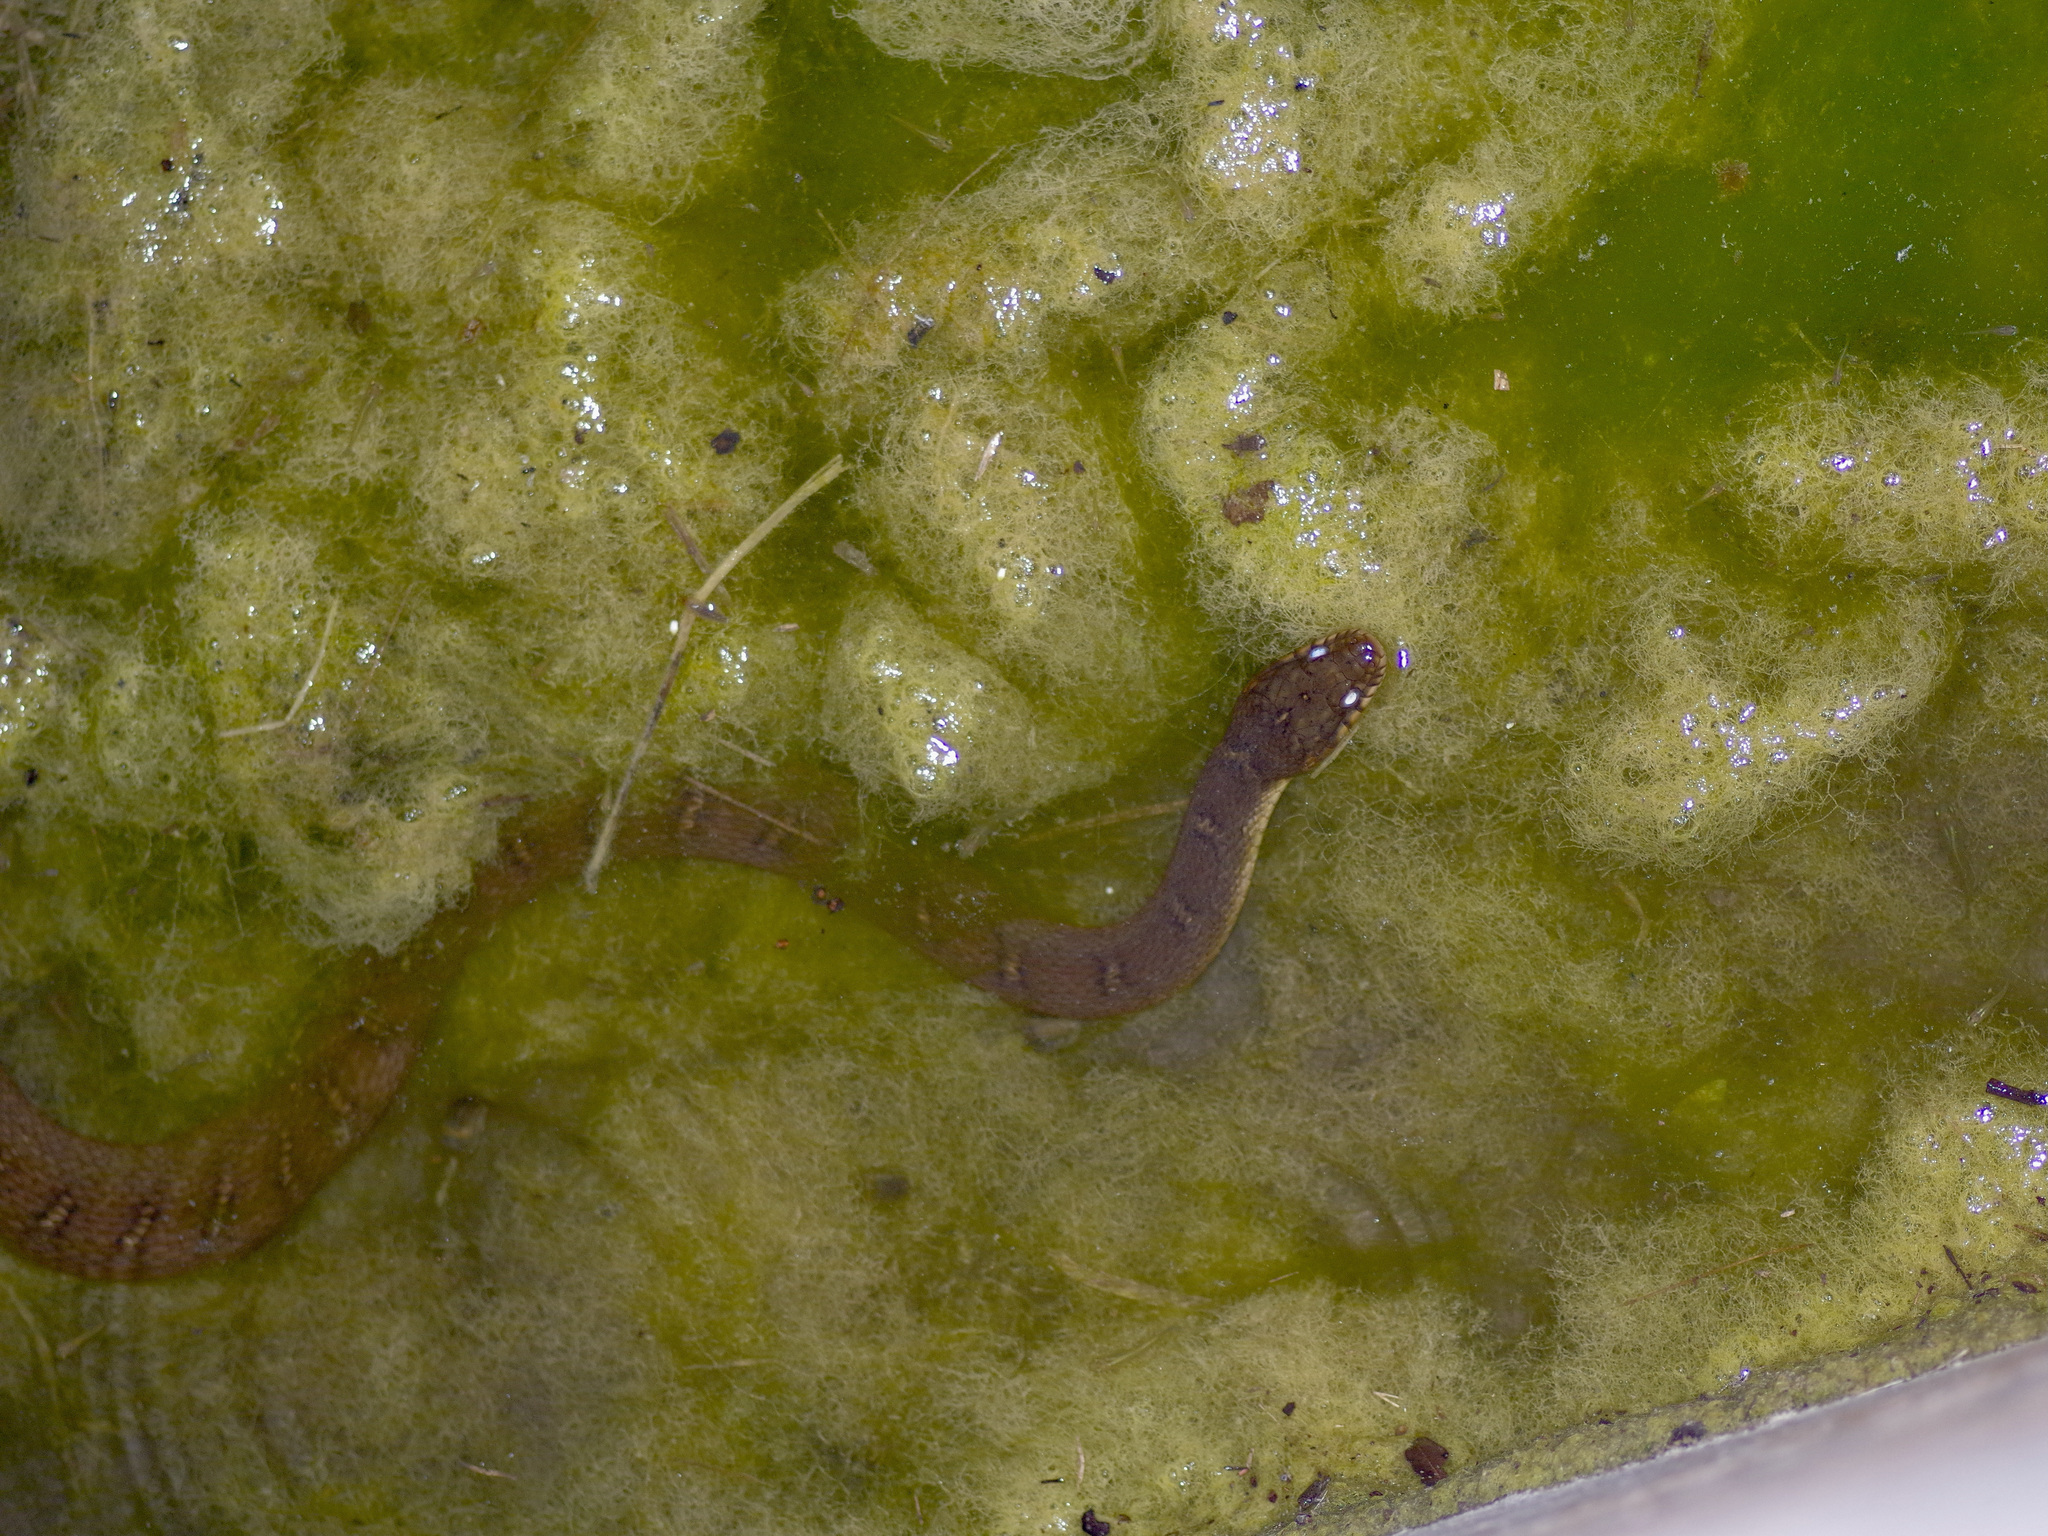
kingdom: Animalia
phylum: Chordata
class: Squamata
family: Colubridae
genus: Nerodia
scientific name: Nerodia erythrogaster
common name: Plainbelly water snake
